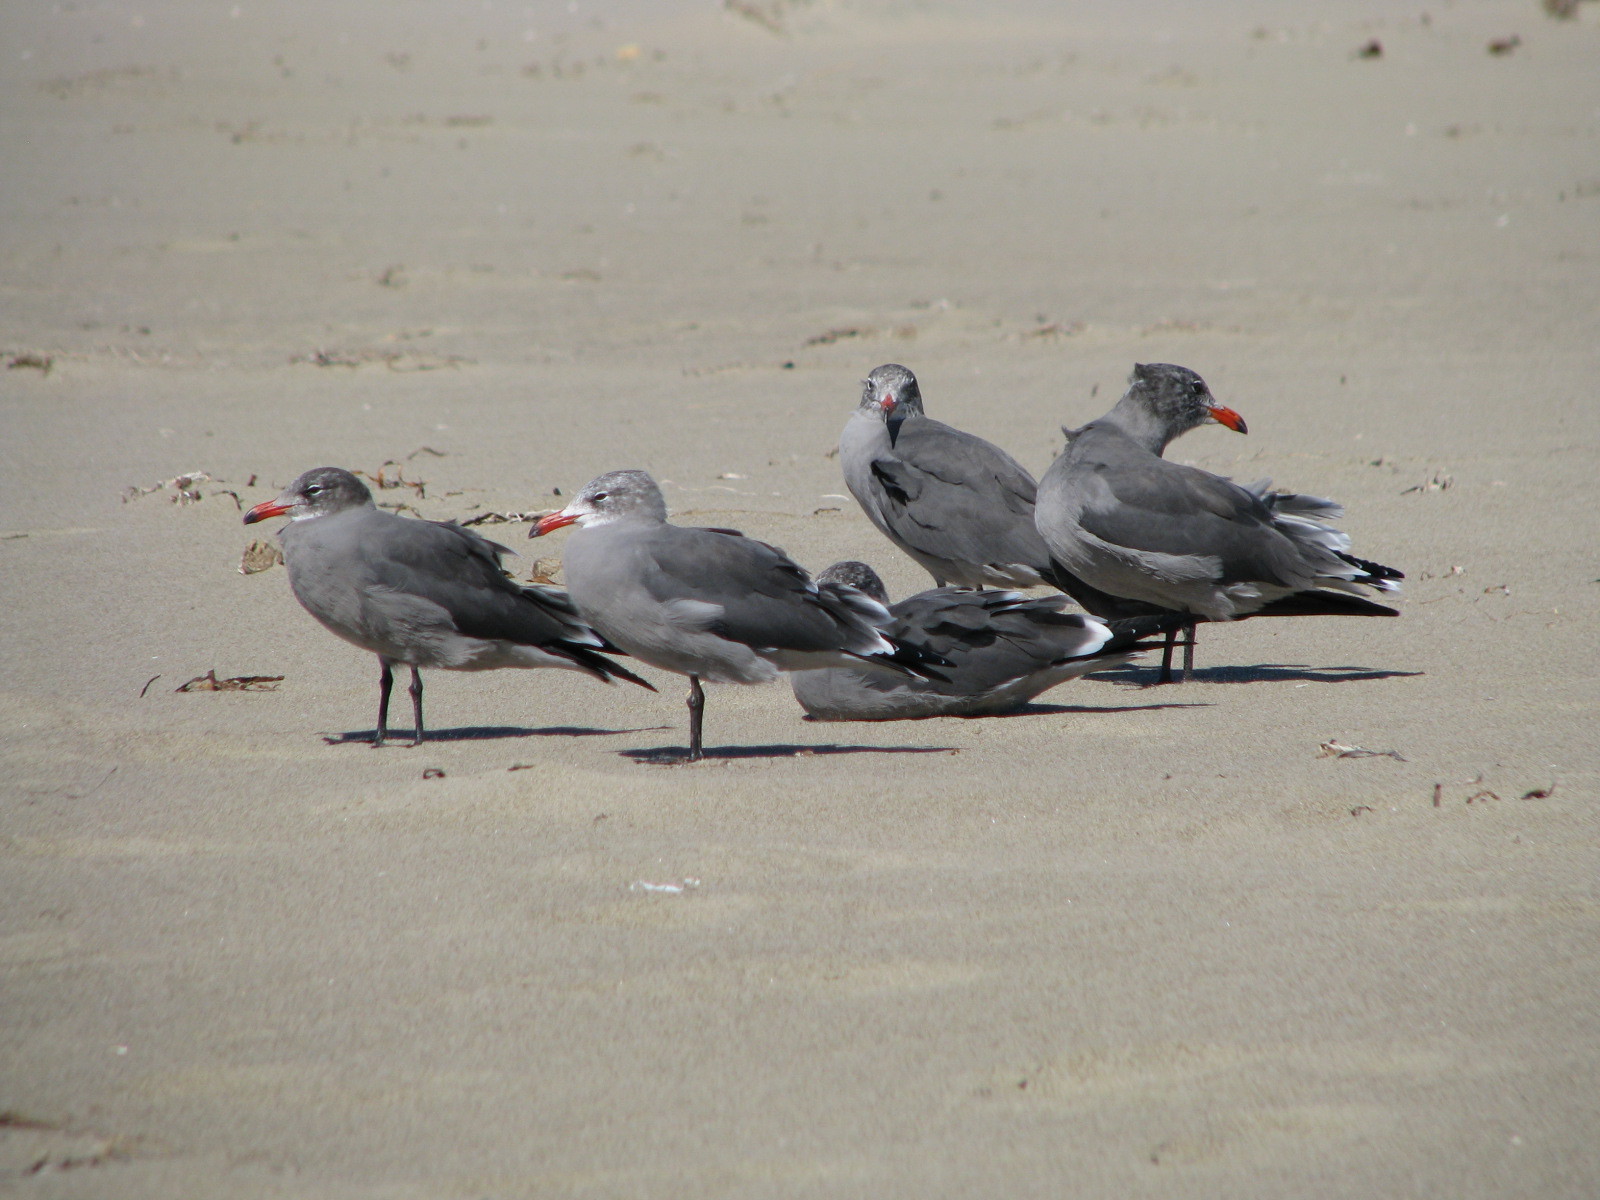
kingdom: Animalia
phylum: Chordata
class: Aves
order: Charadriiformes
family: Laridae
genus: Larus
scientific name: Larus heermanni
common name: Heermann's gull
